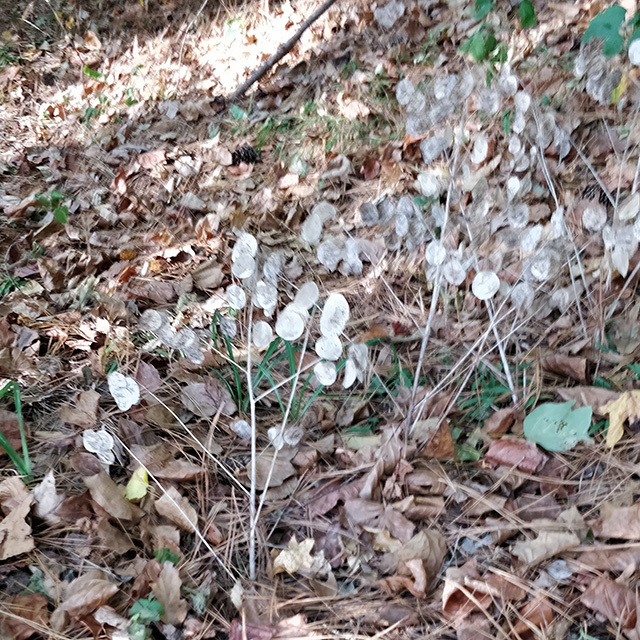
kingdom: Plantae
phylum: Tracheophyta
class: Magnoliopsida
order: Brassicales
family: Brassicaceae
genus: Lunaria
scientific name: Lunaria annua
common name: Honesty
